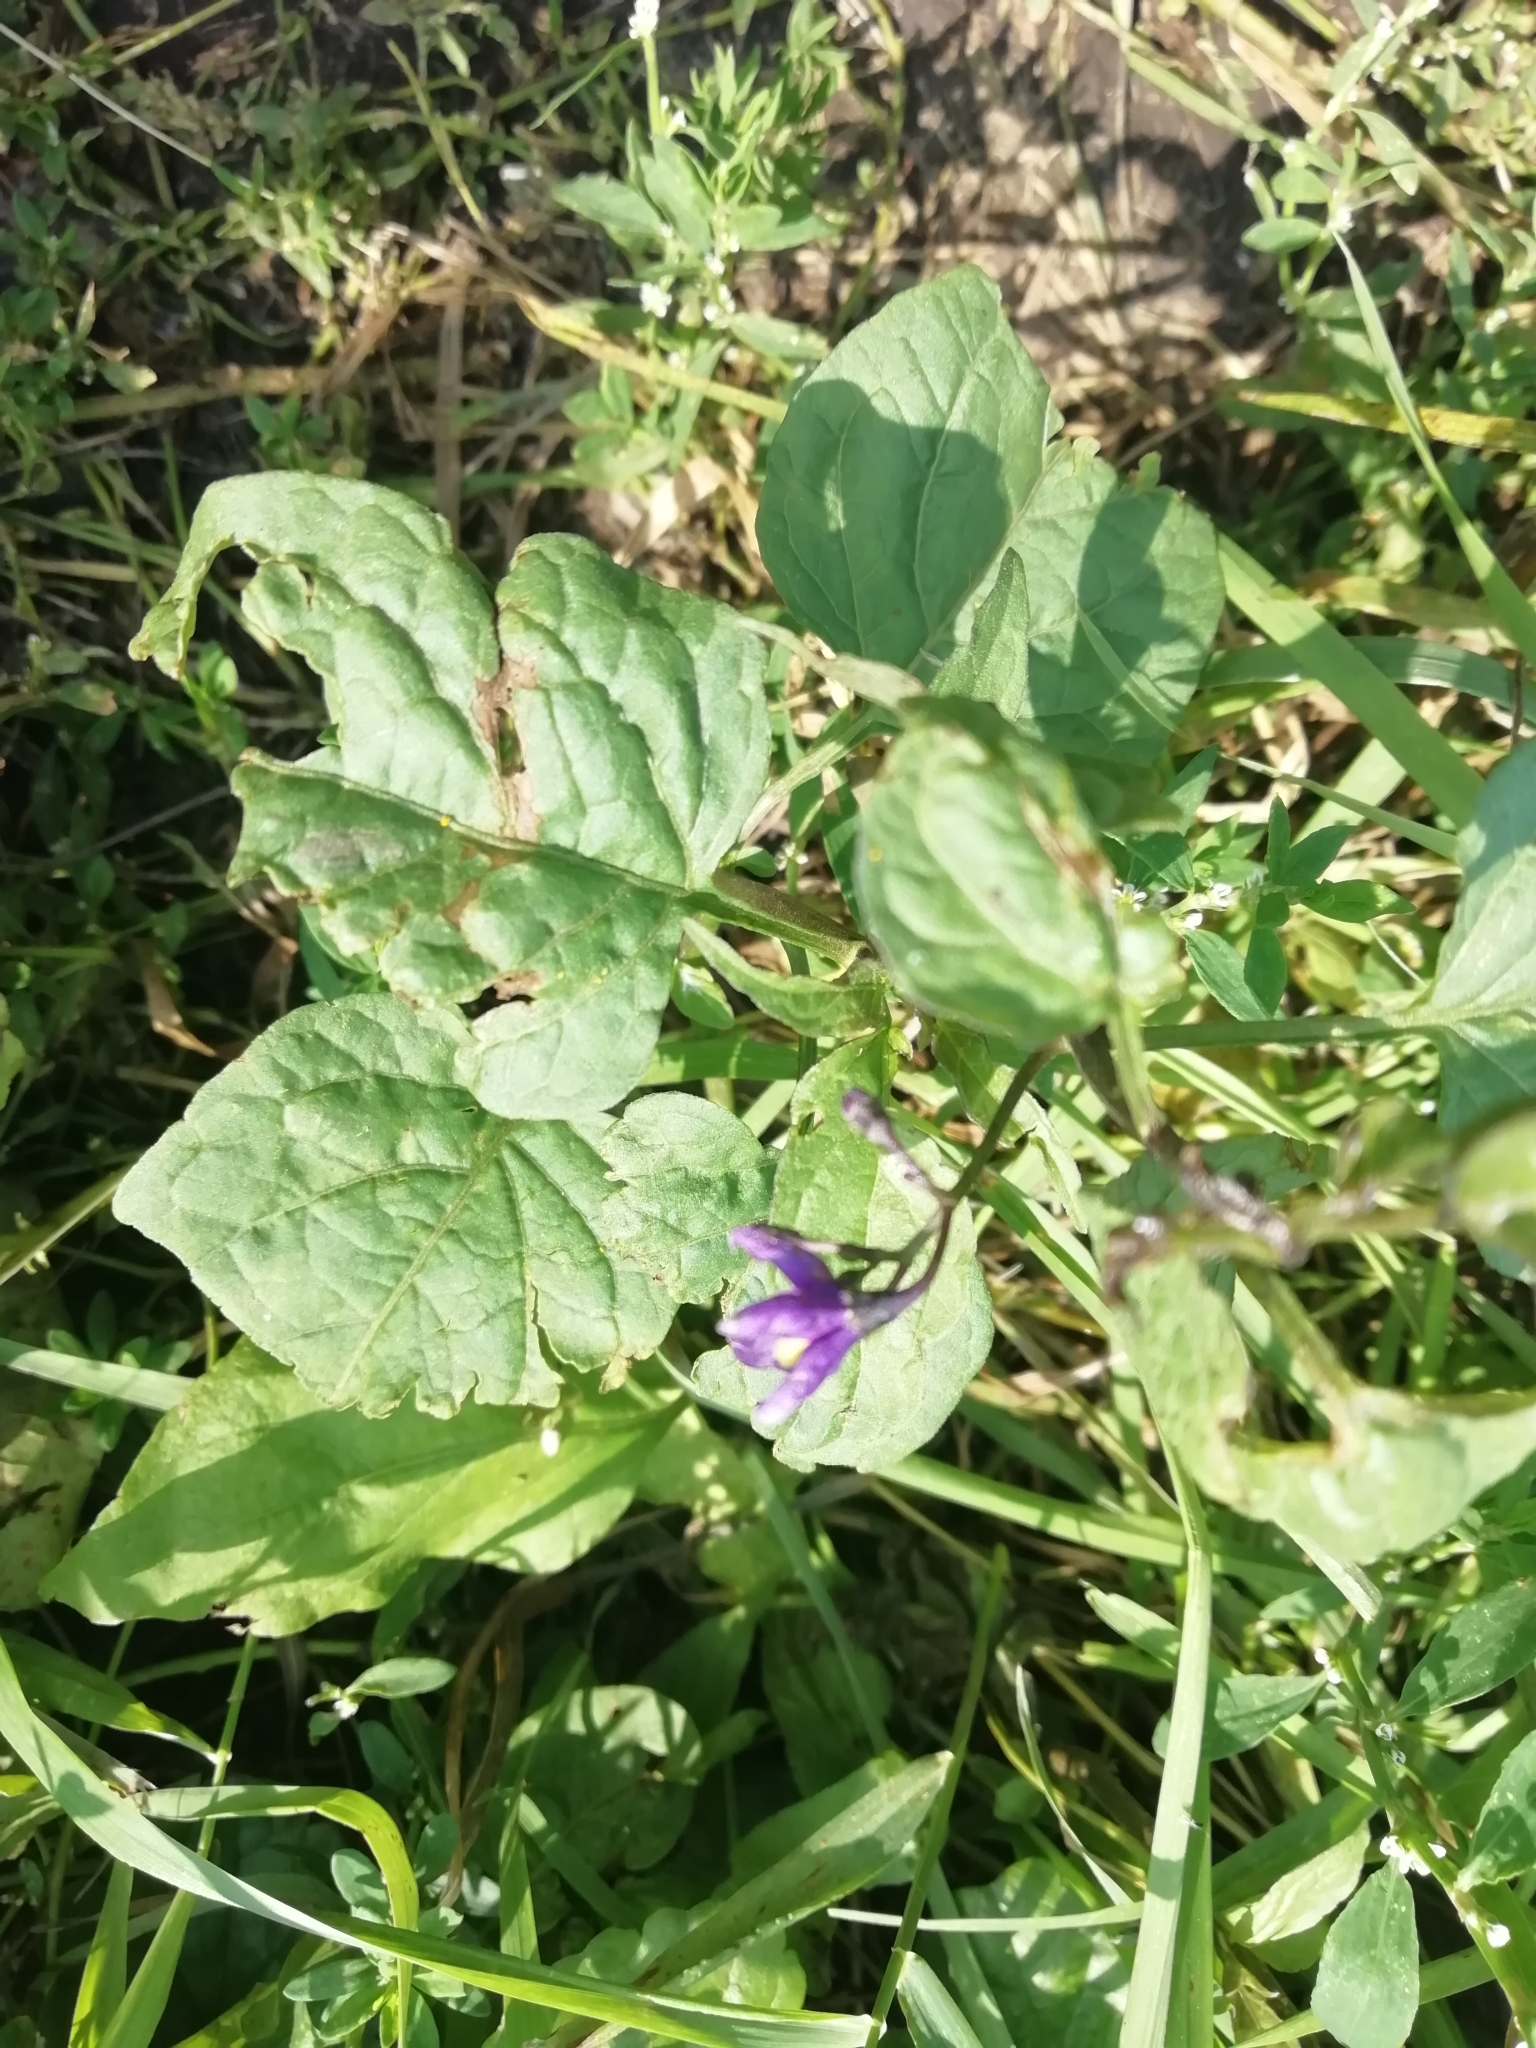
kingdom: Plantae
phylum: Tracheophyta
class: Magnoliopsida
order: Solanales
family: Solanaceae
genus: Solanum
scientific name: Solanum dulcamara
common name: Climbing nightshade
